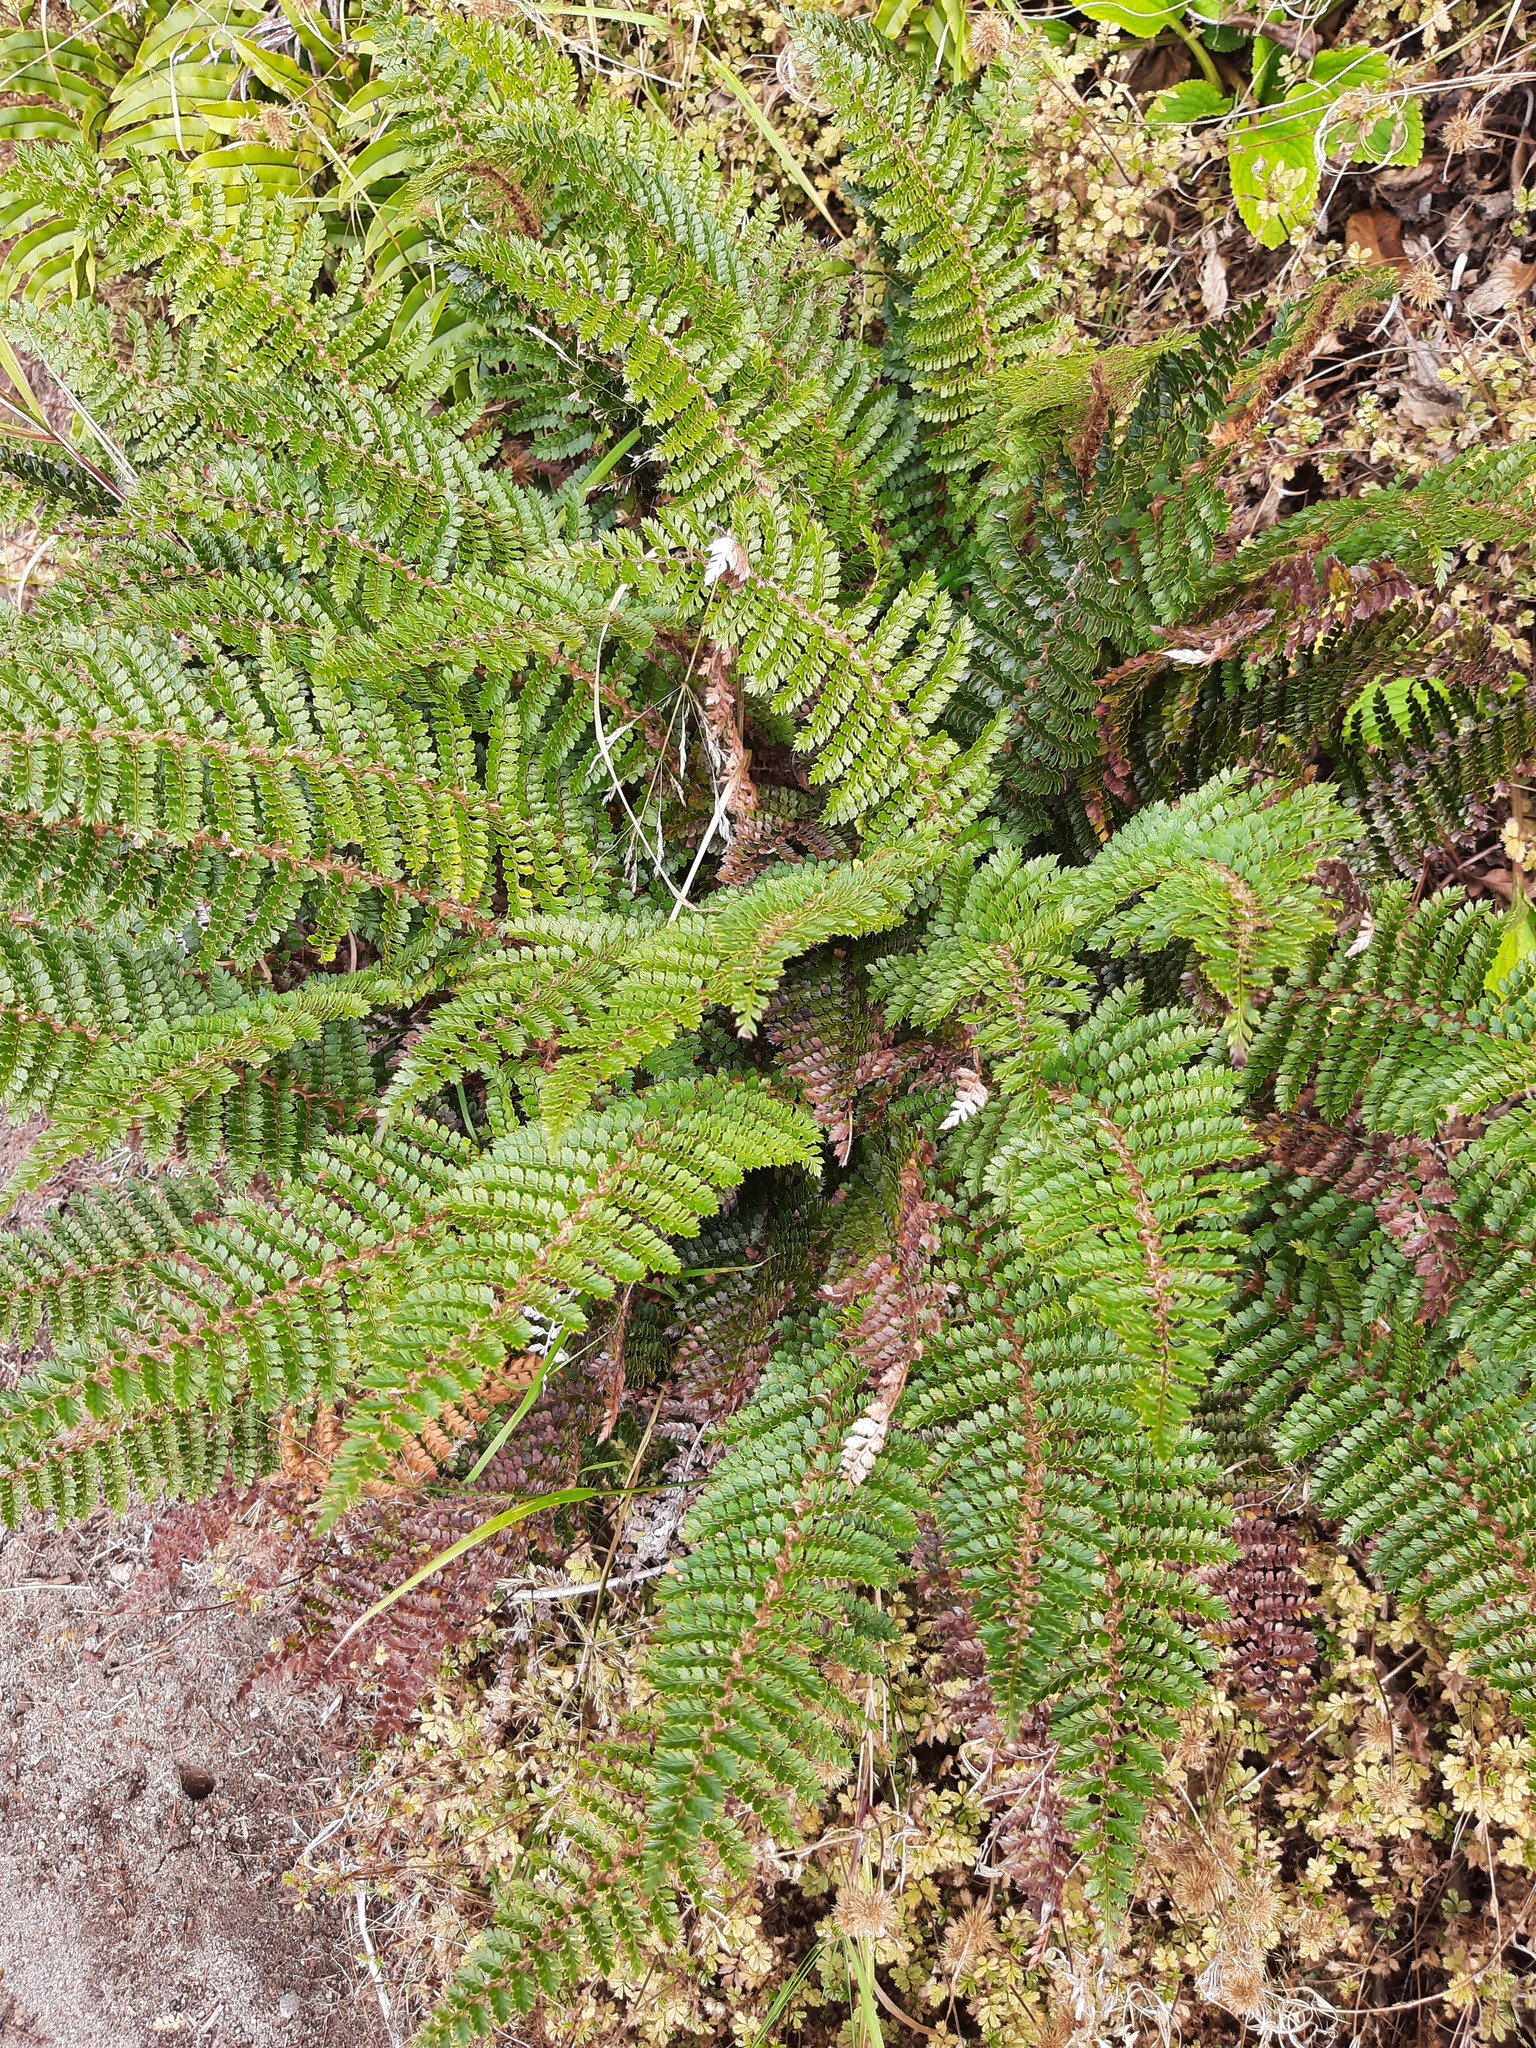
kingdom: Plantae
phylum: Tracheophyta
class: Polypodiopsida
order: Polypodiales
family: Dryopteridaceae
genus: Polystichum
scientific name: Polystichum vestitum
